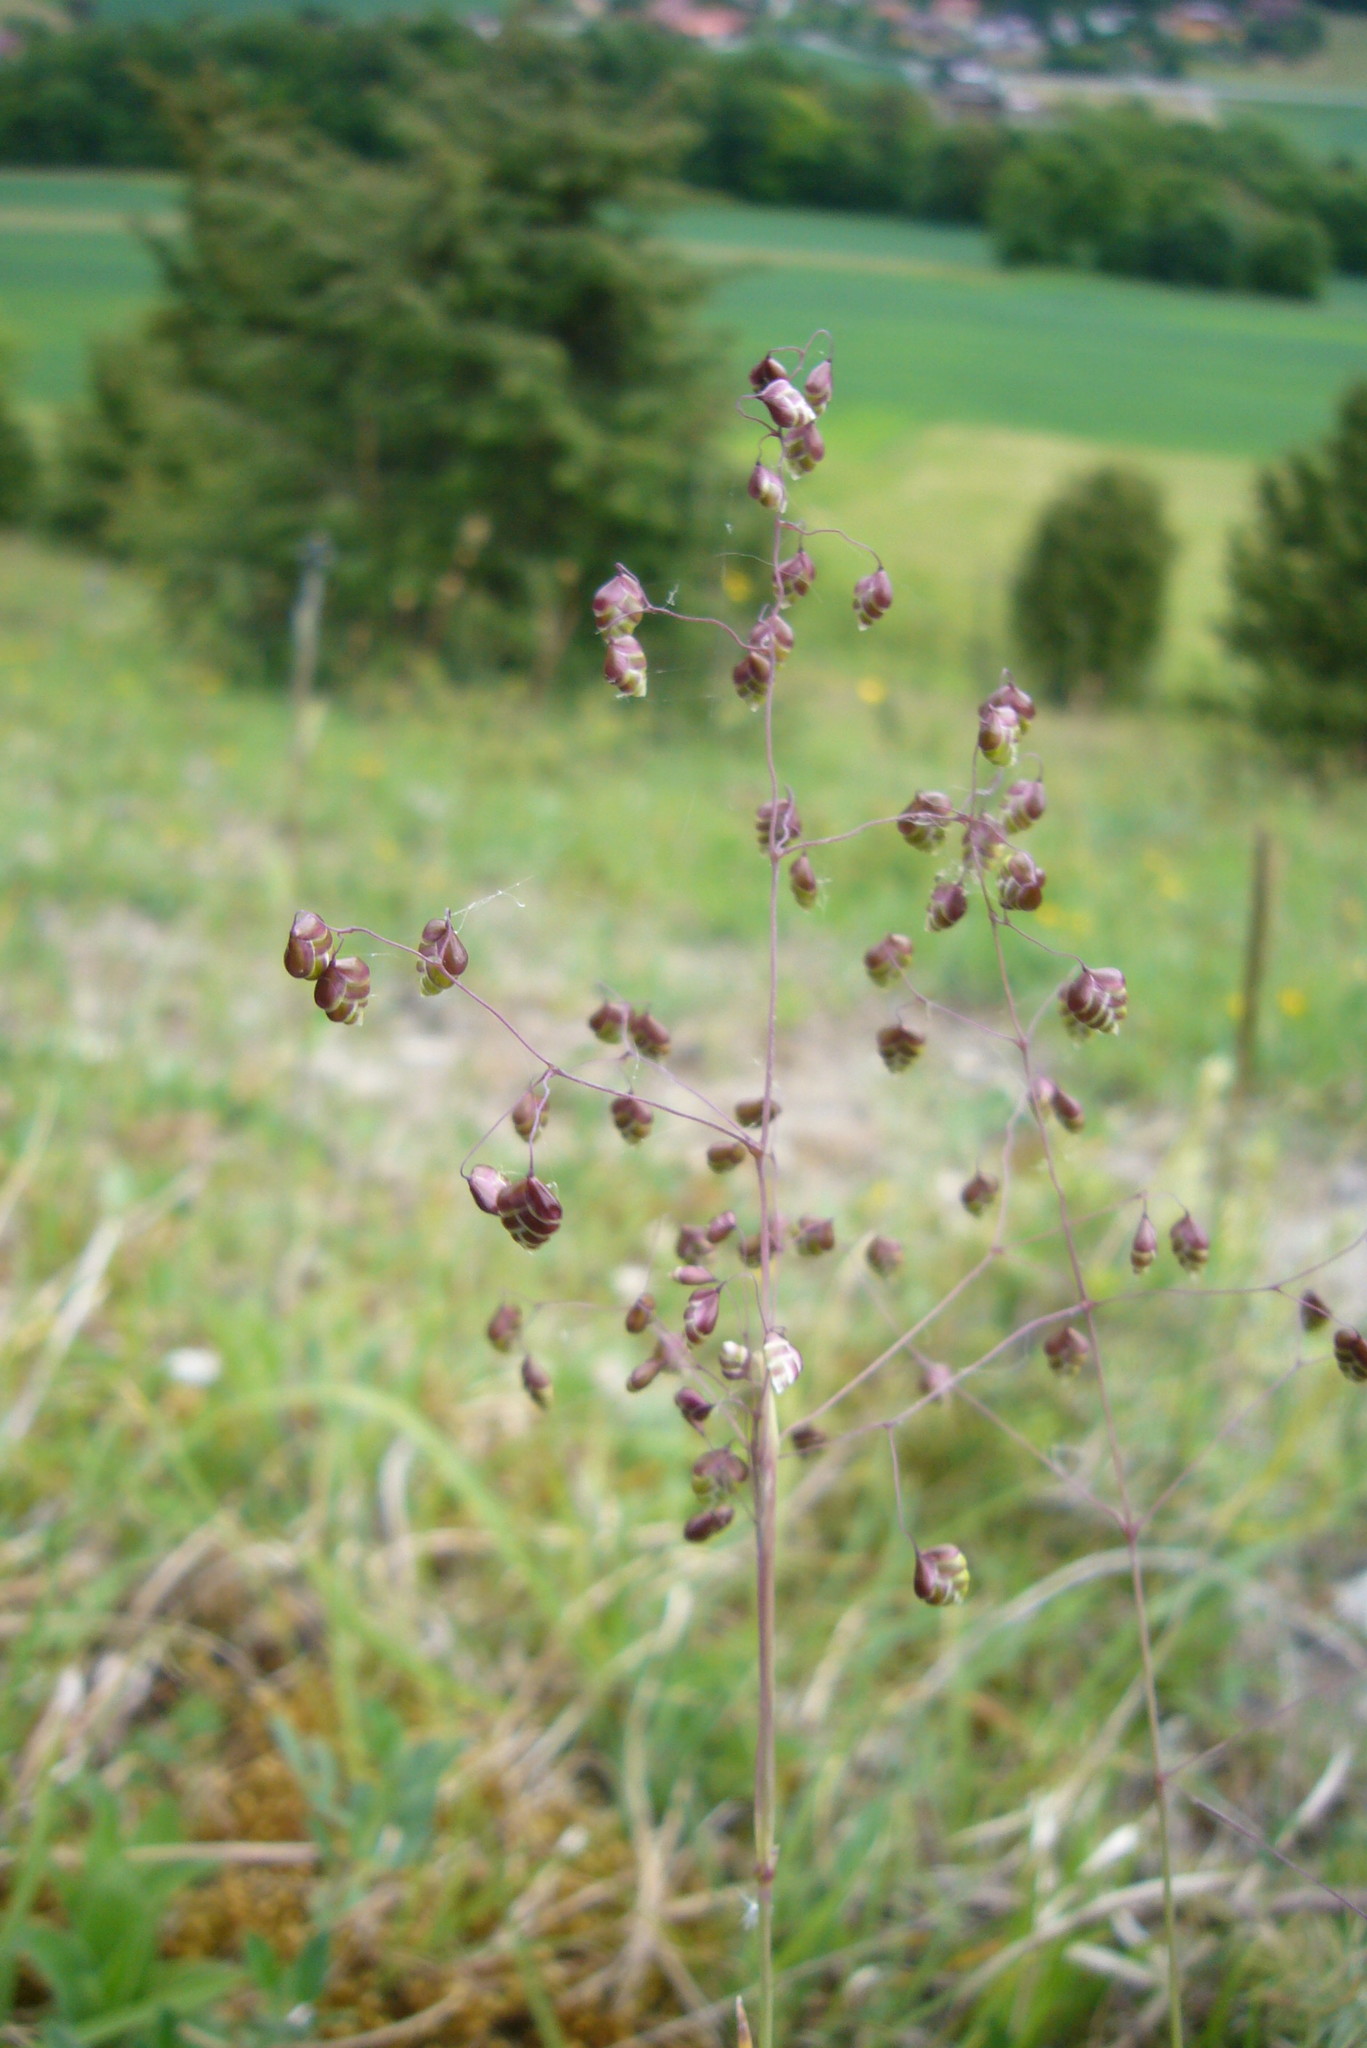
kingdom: Plantae
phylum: Tracheophyta
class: Liliopsida
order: Poales
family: Poaceae
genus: Briza
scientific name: Briza media
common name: Quaking grass
